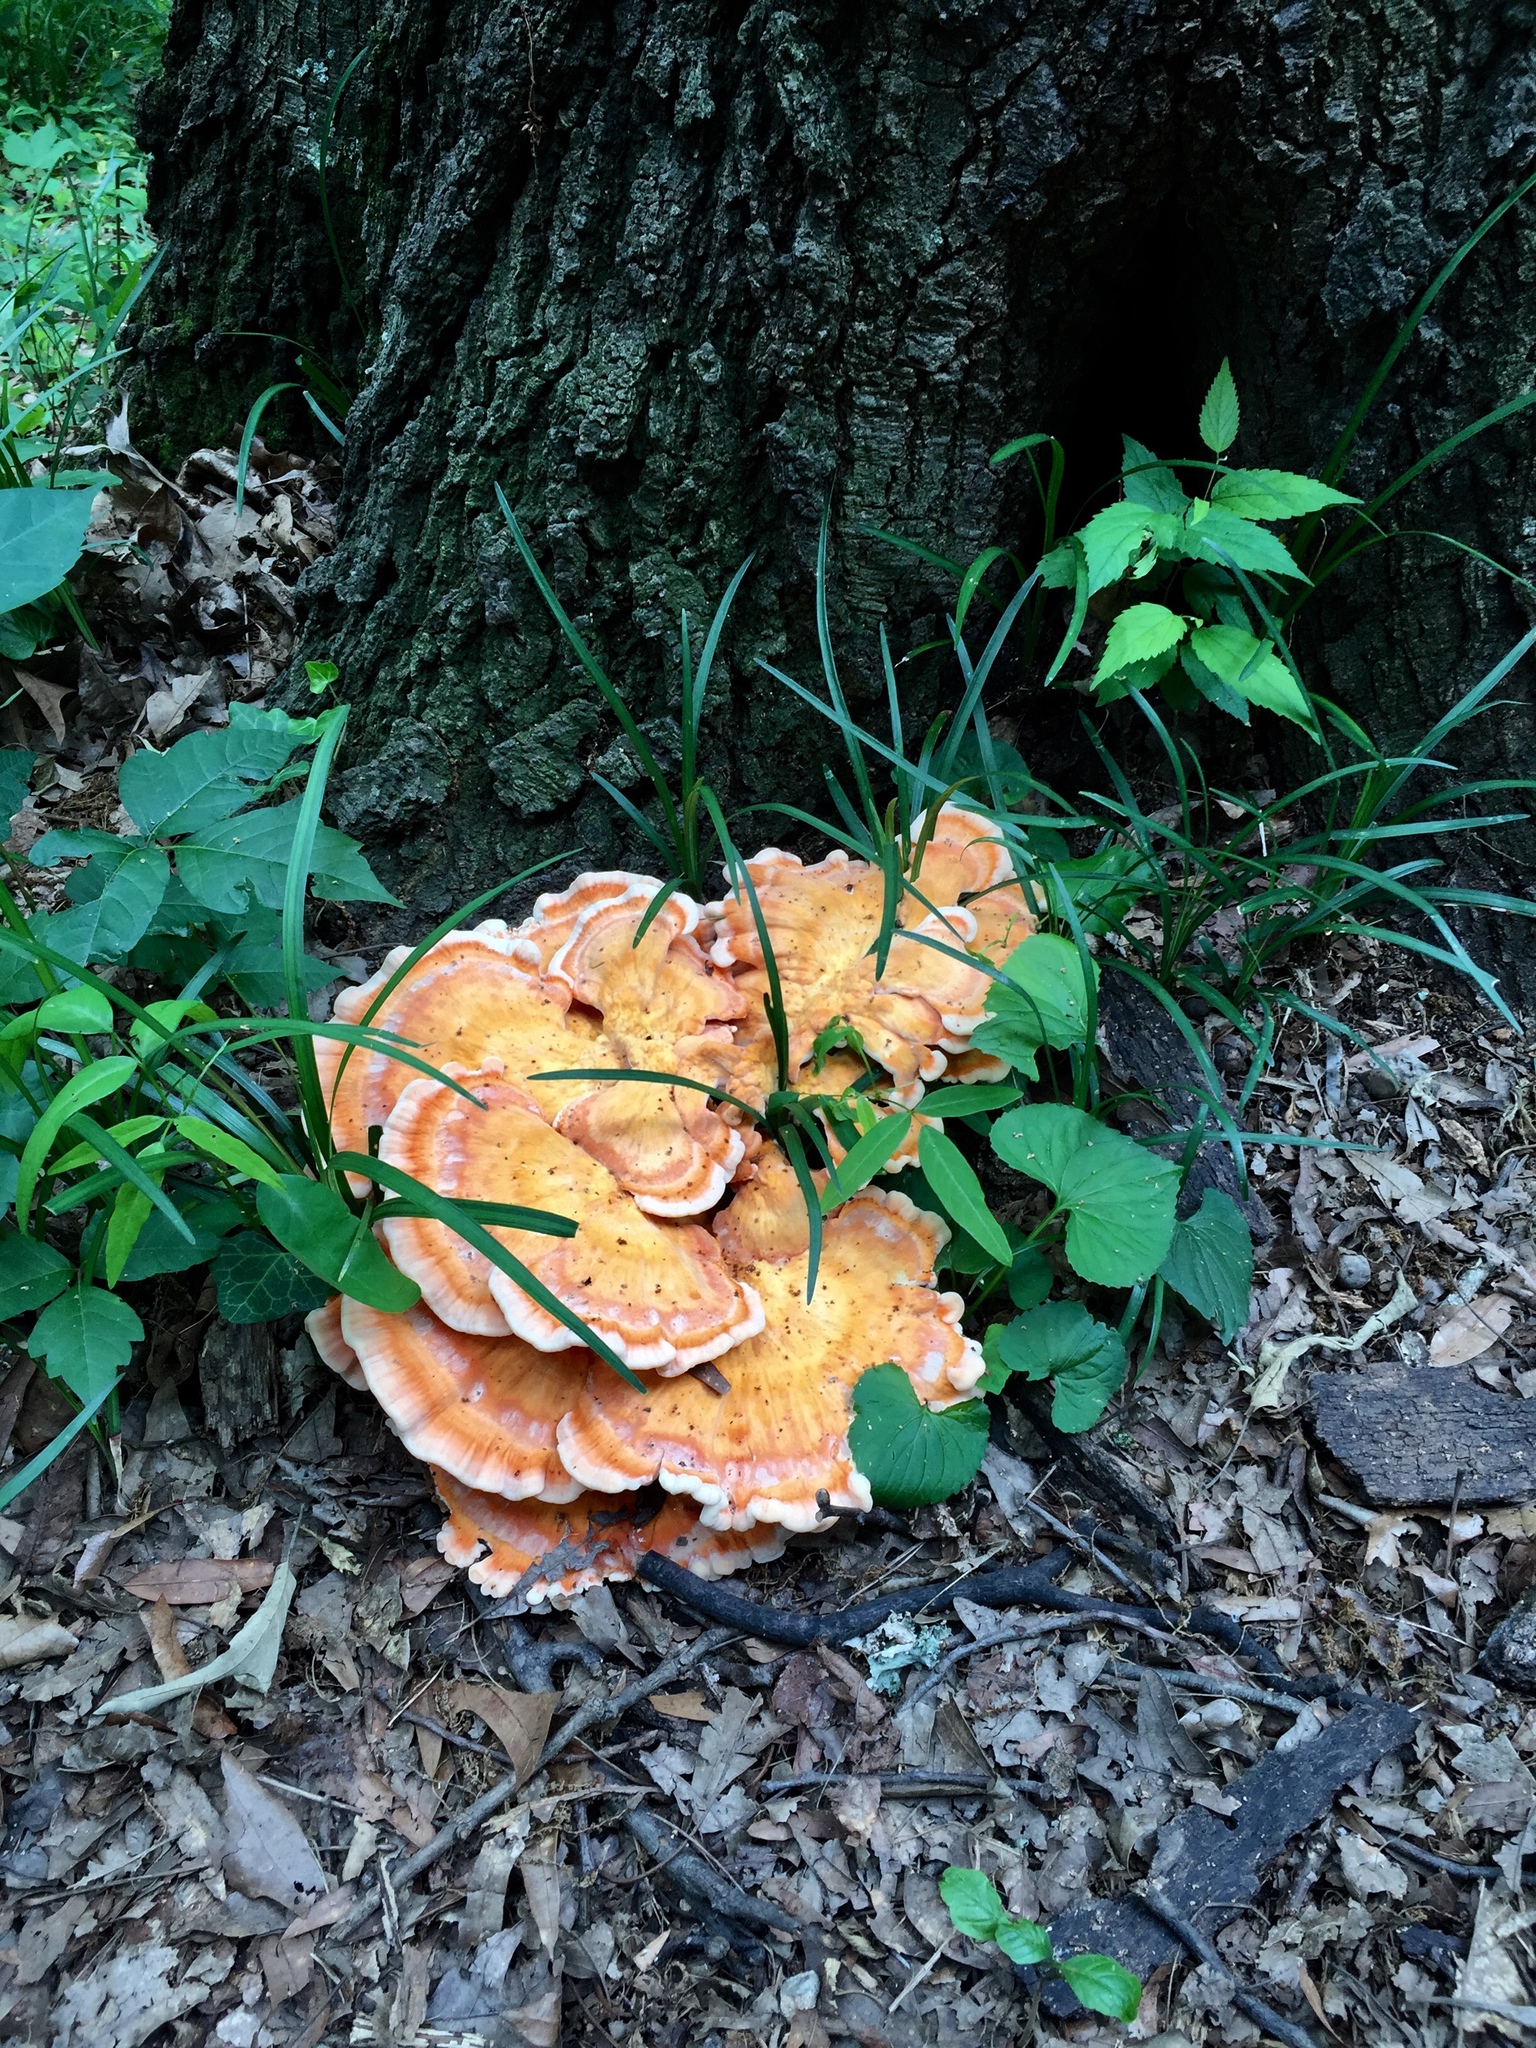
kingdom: Fungi
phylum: Basidiomycota
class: Agaricomycetes
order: Polyporales
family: Laetiporaceae
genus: Laetiporus
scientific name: Laetiporus sulphureus
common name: Chicken of the woods
